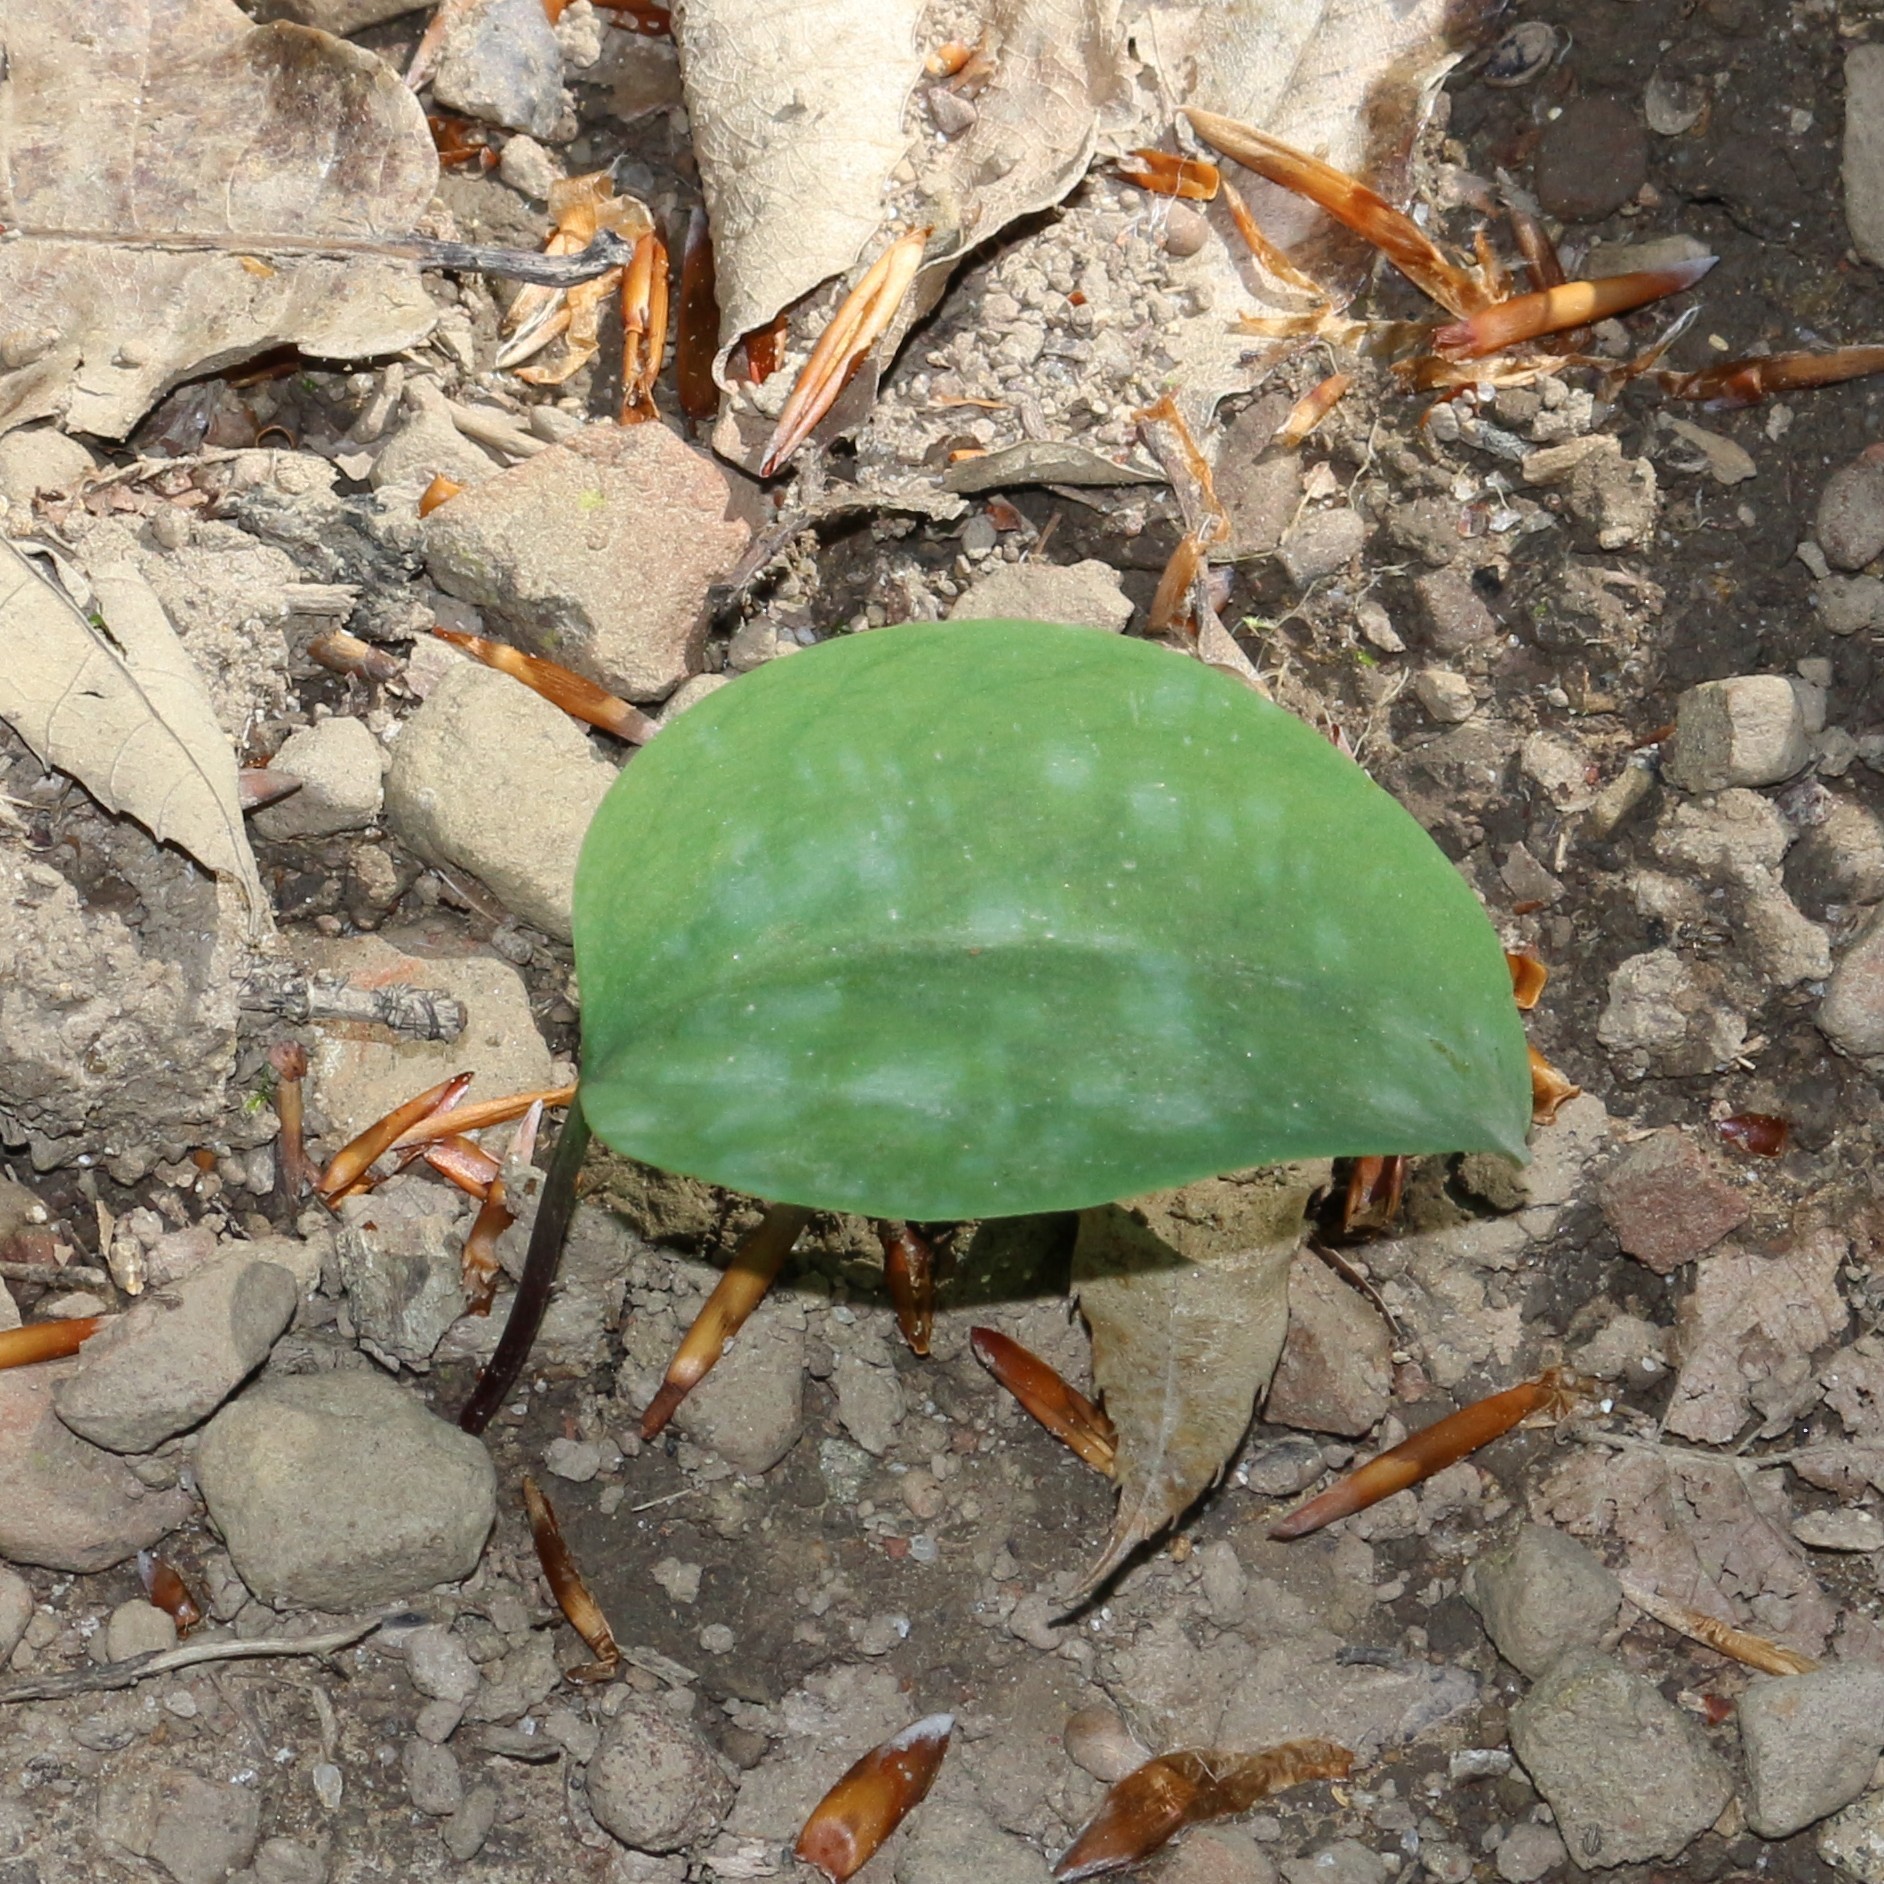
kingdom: Plantae
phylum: Tracheophyta
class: Liliopsida
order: Liliales
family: Liliaceae
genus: Erythronium
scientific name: Erythronium caucasicum
